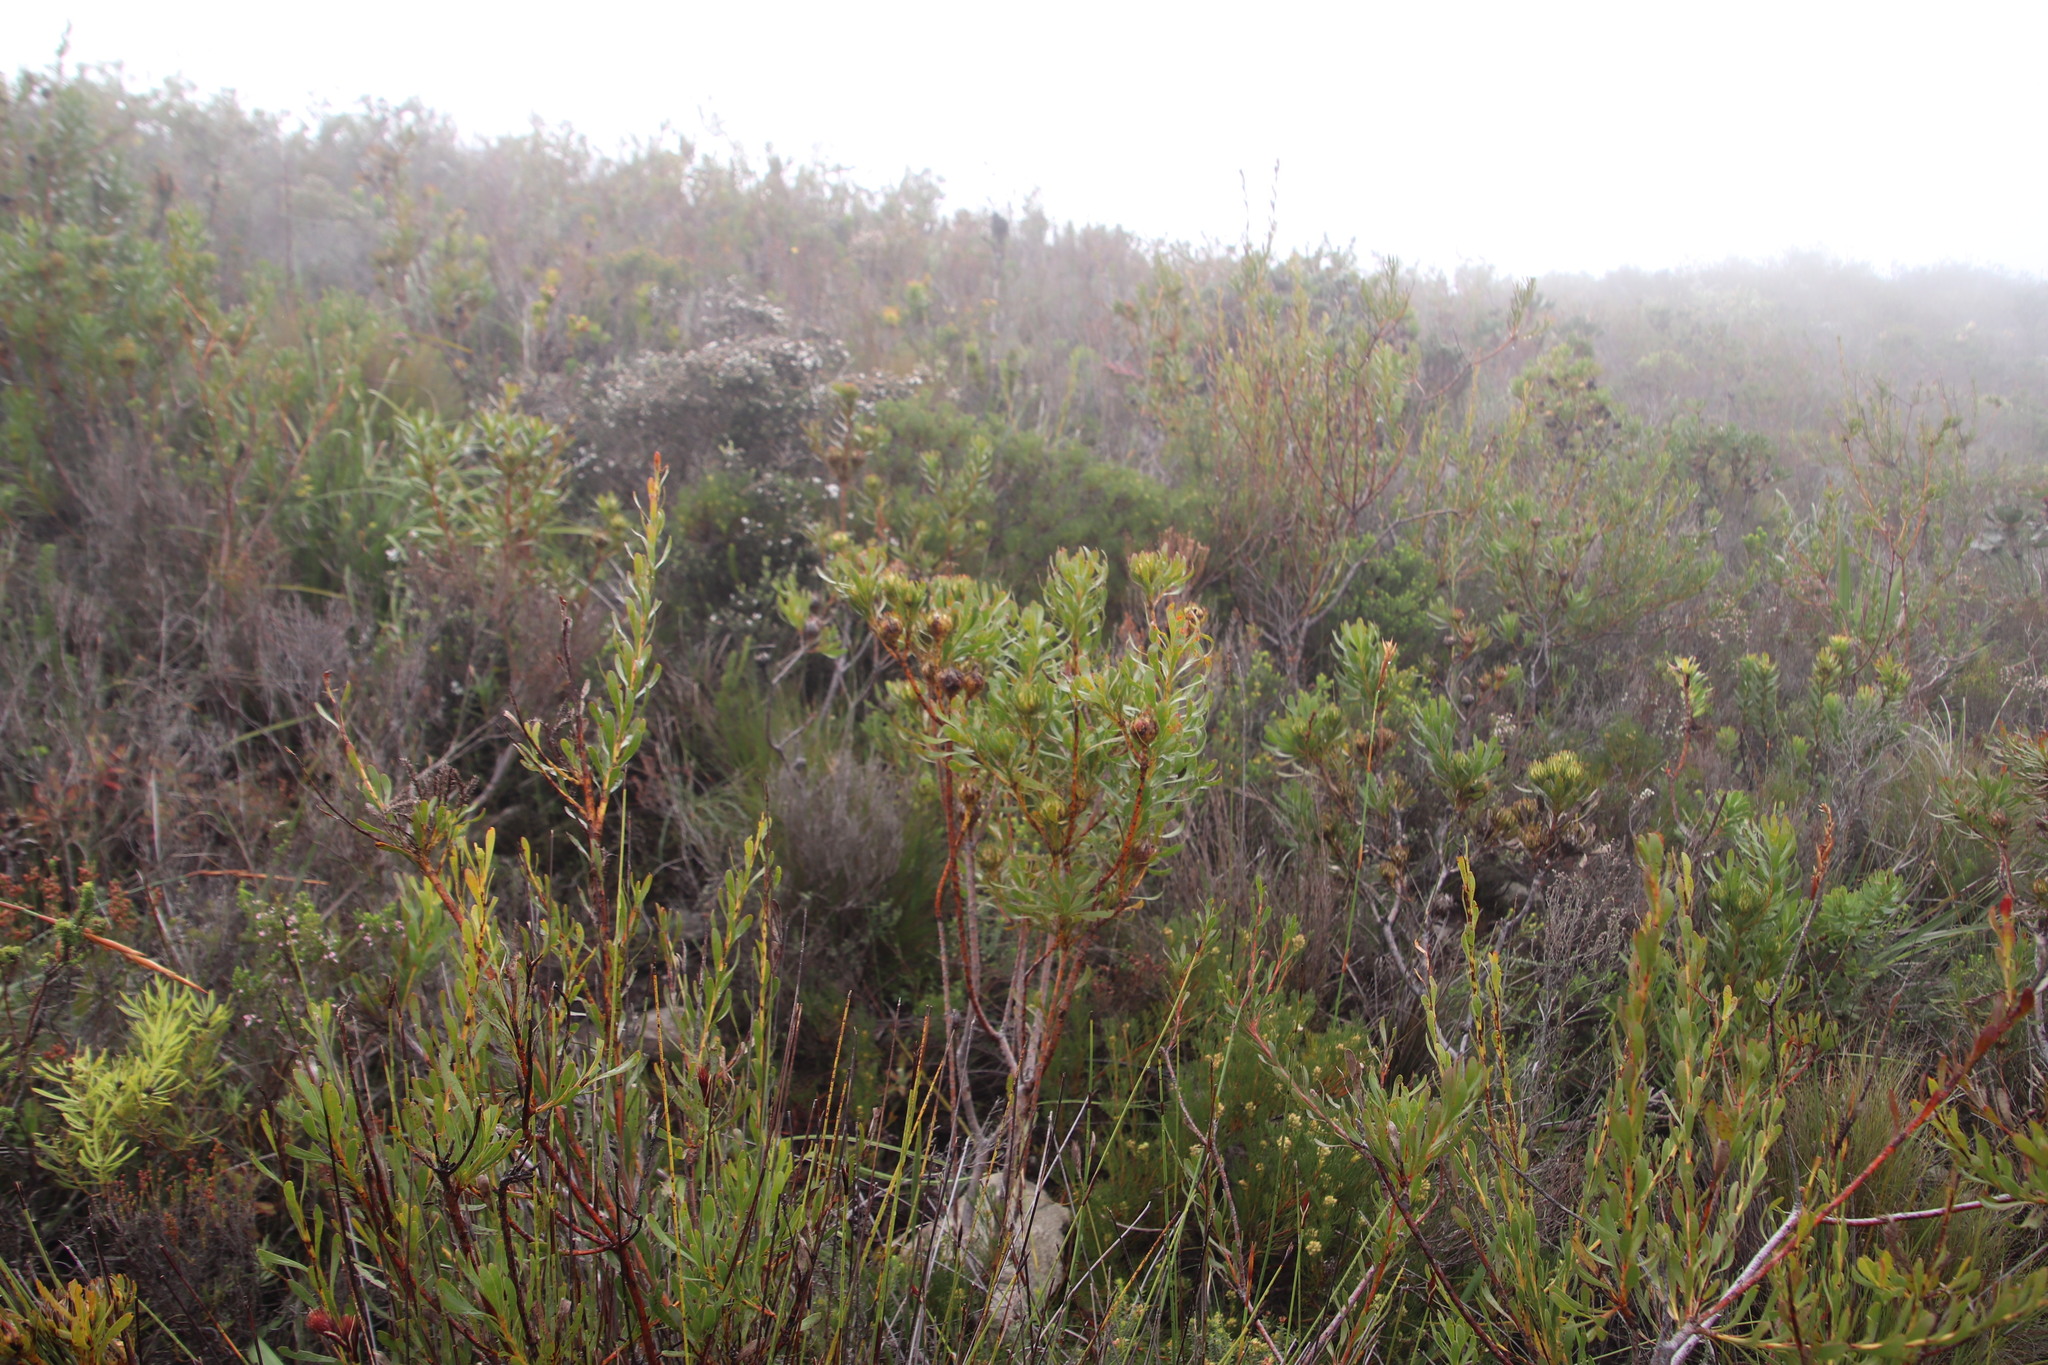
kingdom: Plantae
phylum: Tracheophyta
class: Magnoliopsida
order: Proteales
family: Proteaceae
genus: Aulax
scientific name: Aulax umbellata
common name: Broad-leaf featherbush
